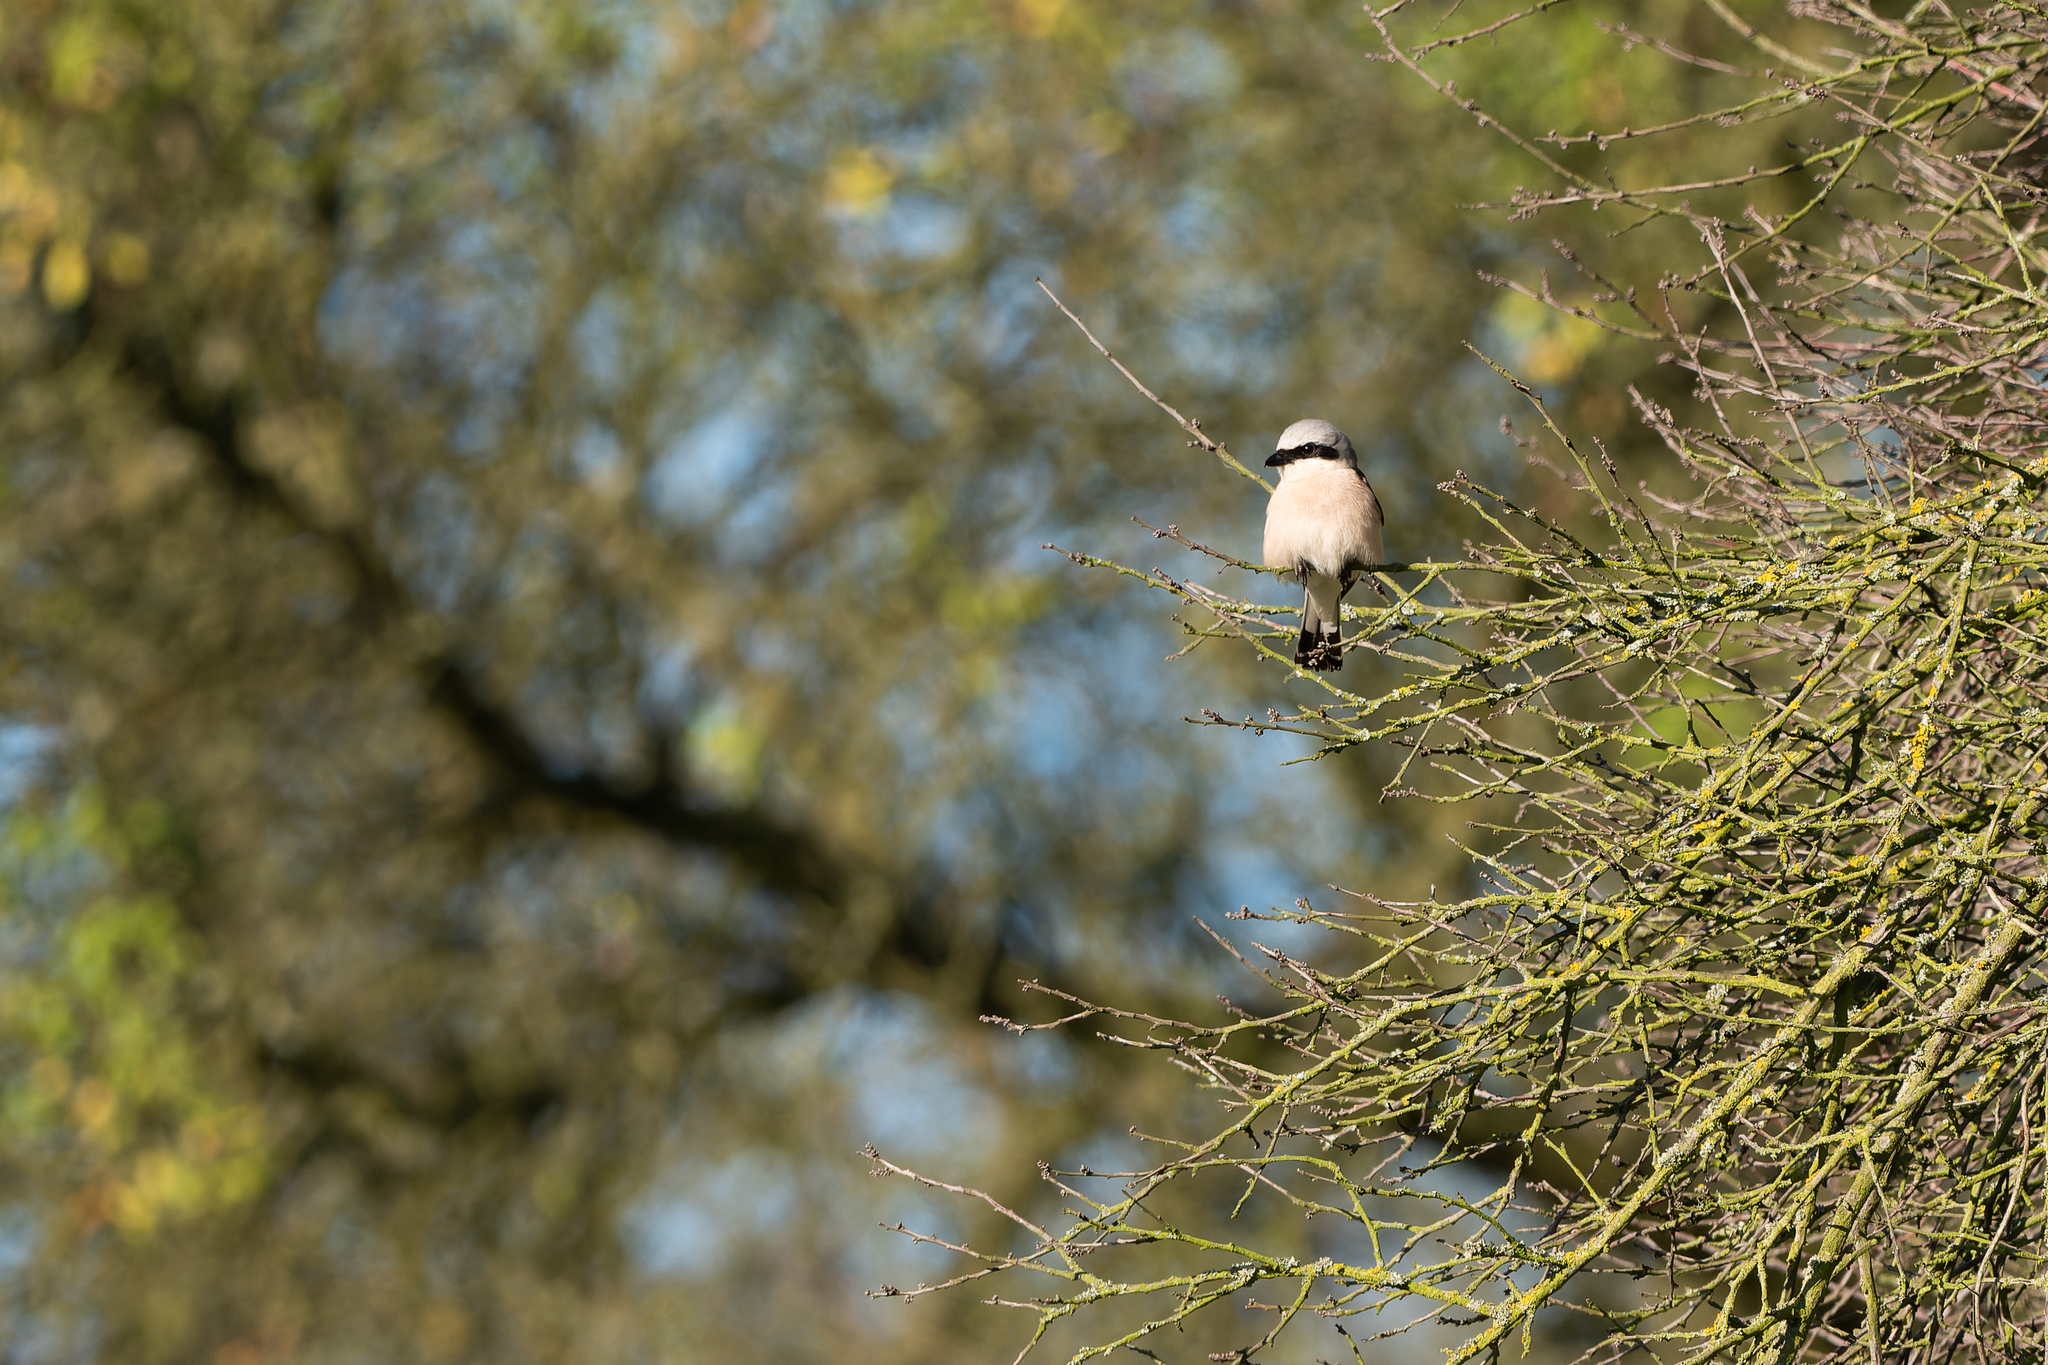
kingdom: Animalia
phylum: Chordata
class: Aves
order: Passeriformes
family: Laniidae
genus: Lanius
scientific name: Lanius collurio
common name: Red-backed shrike
